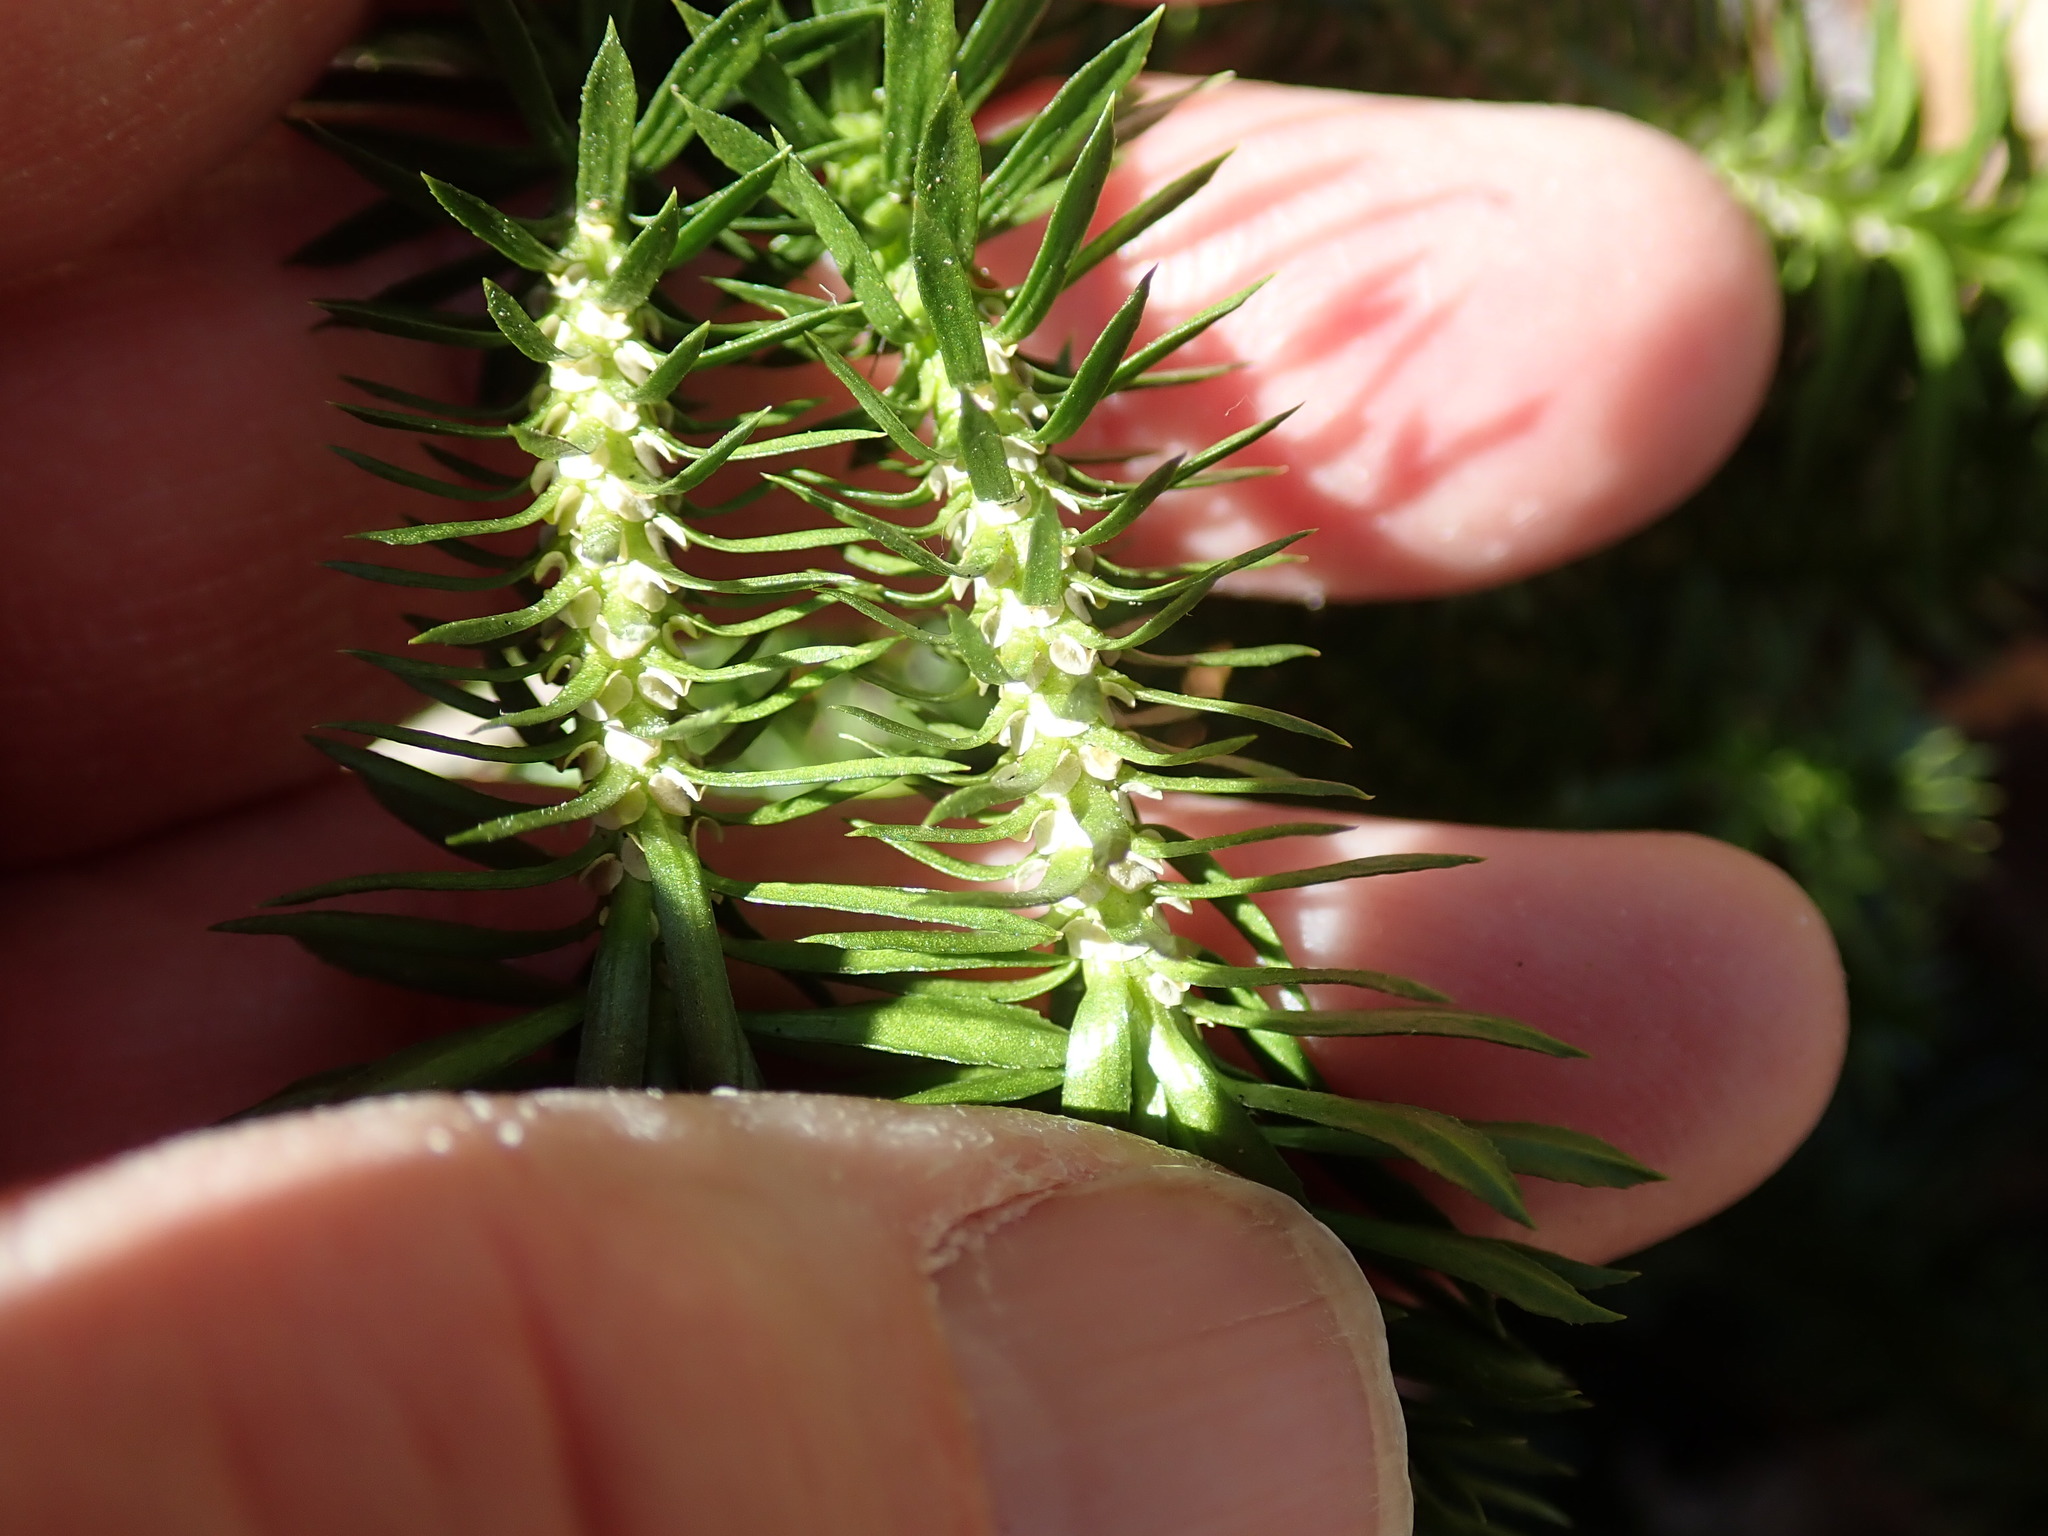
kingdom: Plantae
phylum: Tracheophyta
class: Lycopodiopsida
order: Lycopodiales
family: Lycopodiaceae
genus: Huperzia
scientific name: Huperzia lucidula
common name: Shining clubmoss
